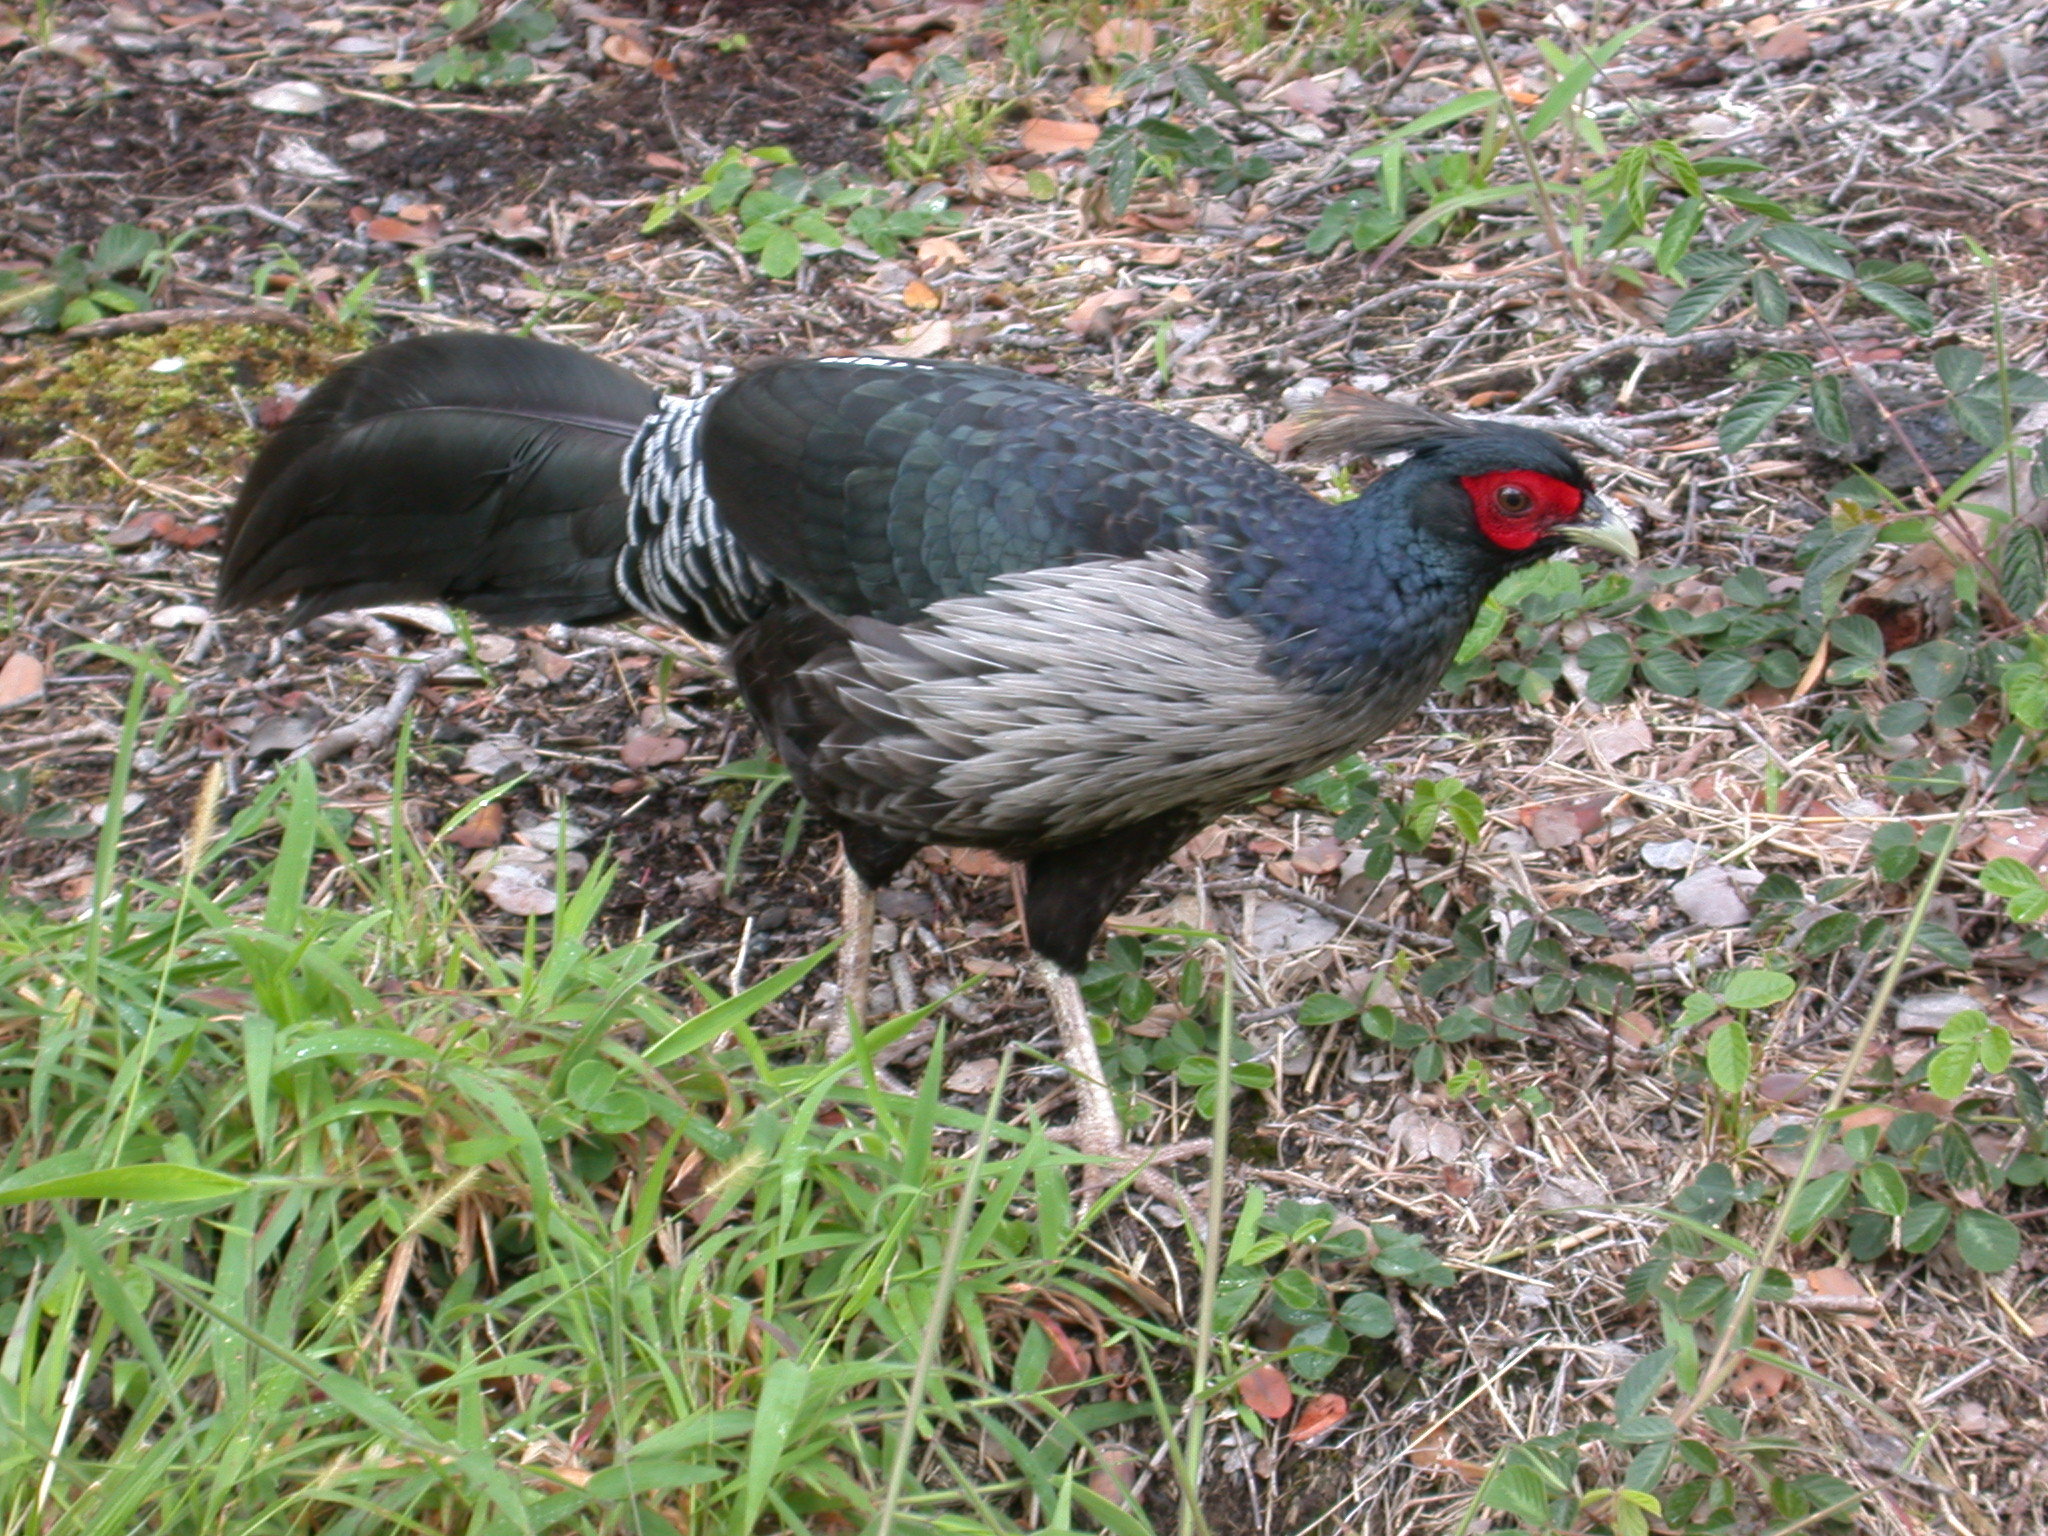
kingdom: Animalia
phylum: Chordata
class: Aves
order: Galliformes
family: Phasianidae
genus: Lophura
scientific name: Lophura leucomelanos
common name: Kalij pheasant
